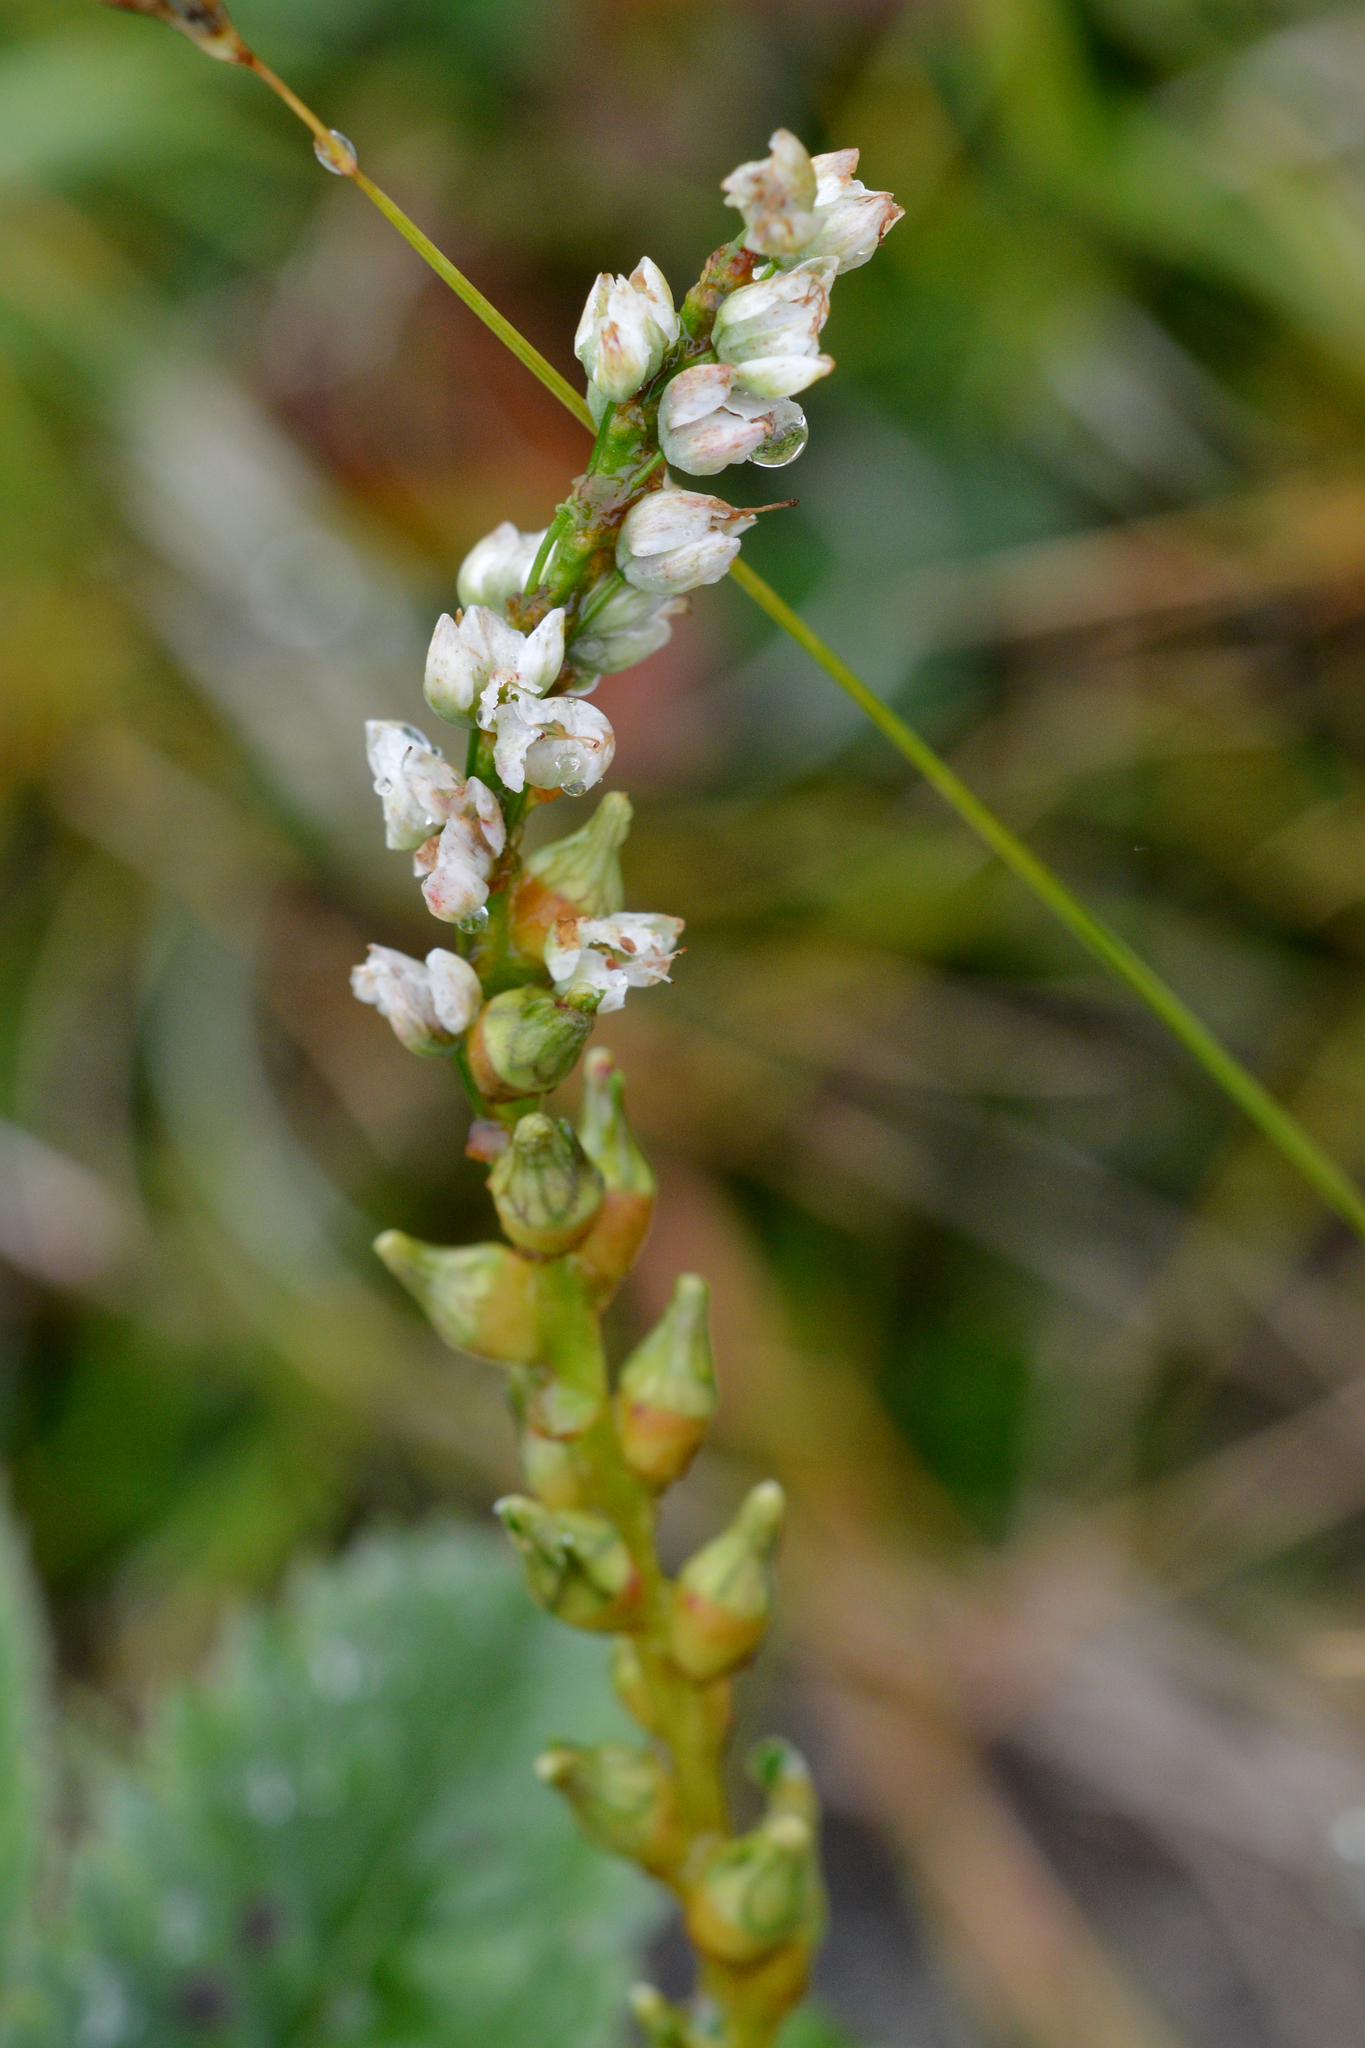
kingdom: Plantae
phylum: Tracheophyta
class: Magnoliopsida
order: Caryophyllales
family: Polygonaceae
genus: Bistorta
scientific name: Bistorta vivipara
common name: Alpine bistort
